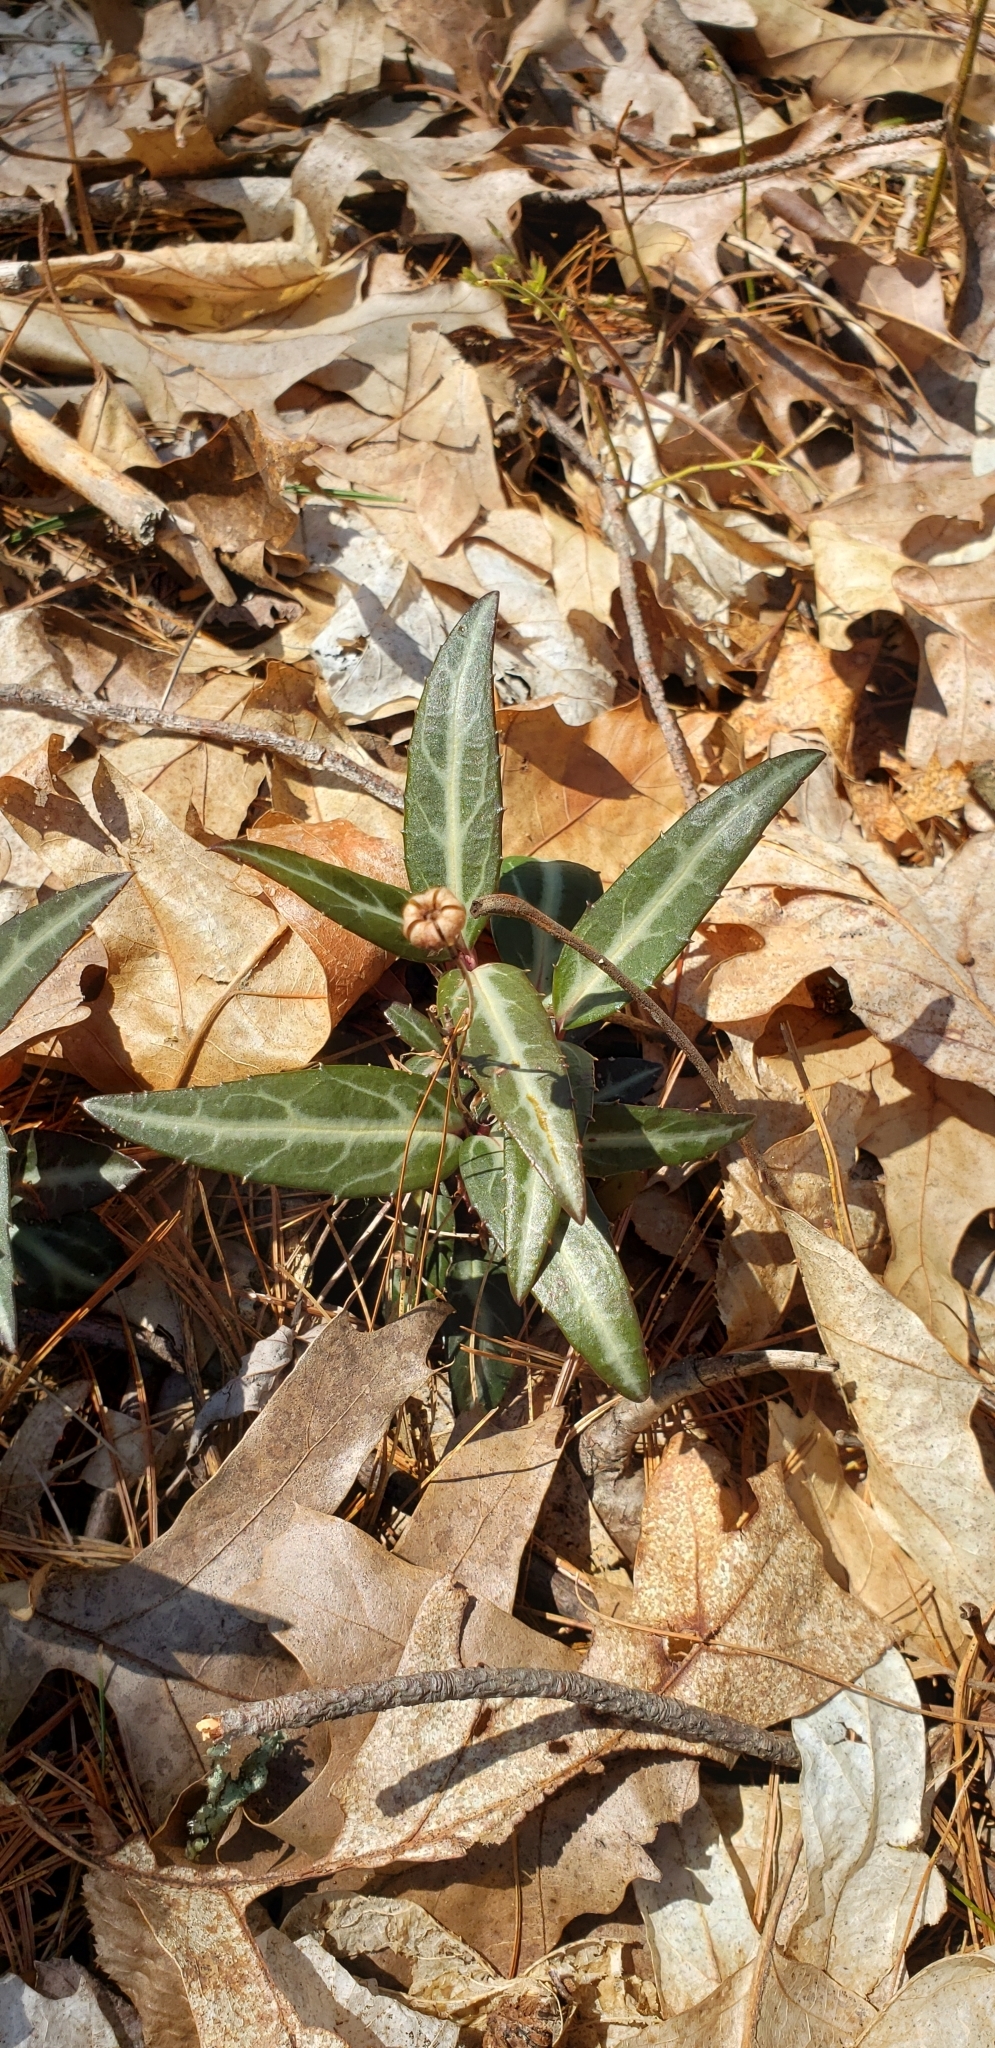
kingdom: Plantae
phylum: Tracheophyta
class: Magnoliopsida
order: Ericales
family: Ericaceae
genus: Chimaphila
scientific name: Chimaphila maculata
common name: Spotted pipsissewa
